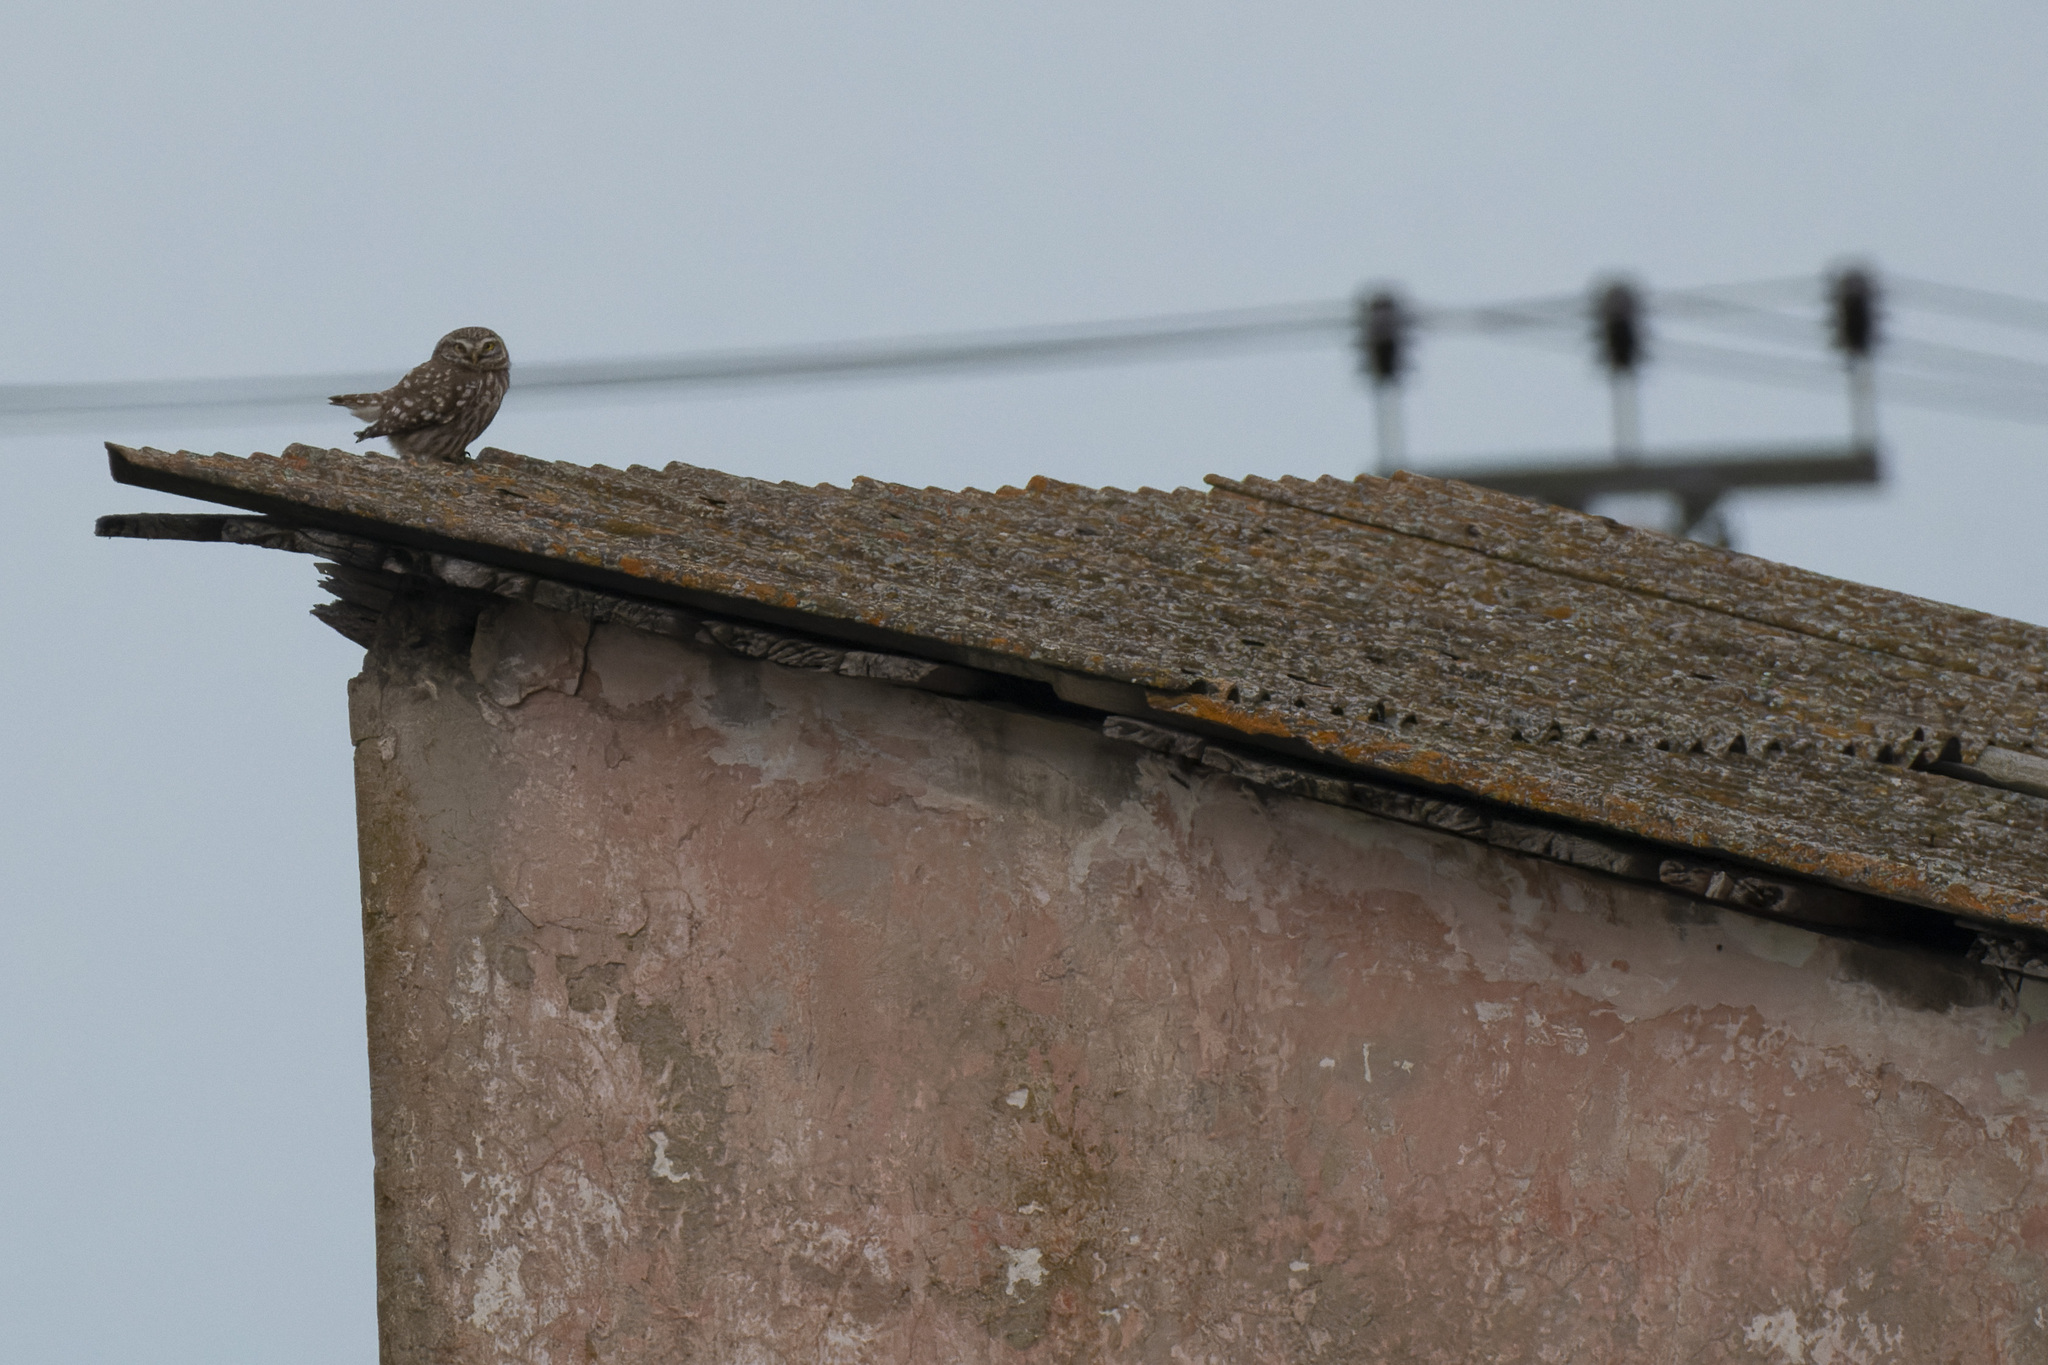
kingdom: Animalia
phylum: Chordata
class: Aves
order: Strigiformes
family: Strigidae
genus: Athene
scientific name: Athene noctua
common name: Little owl
